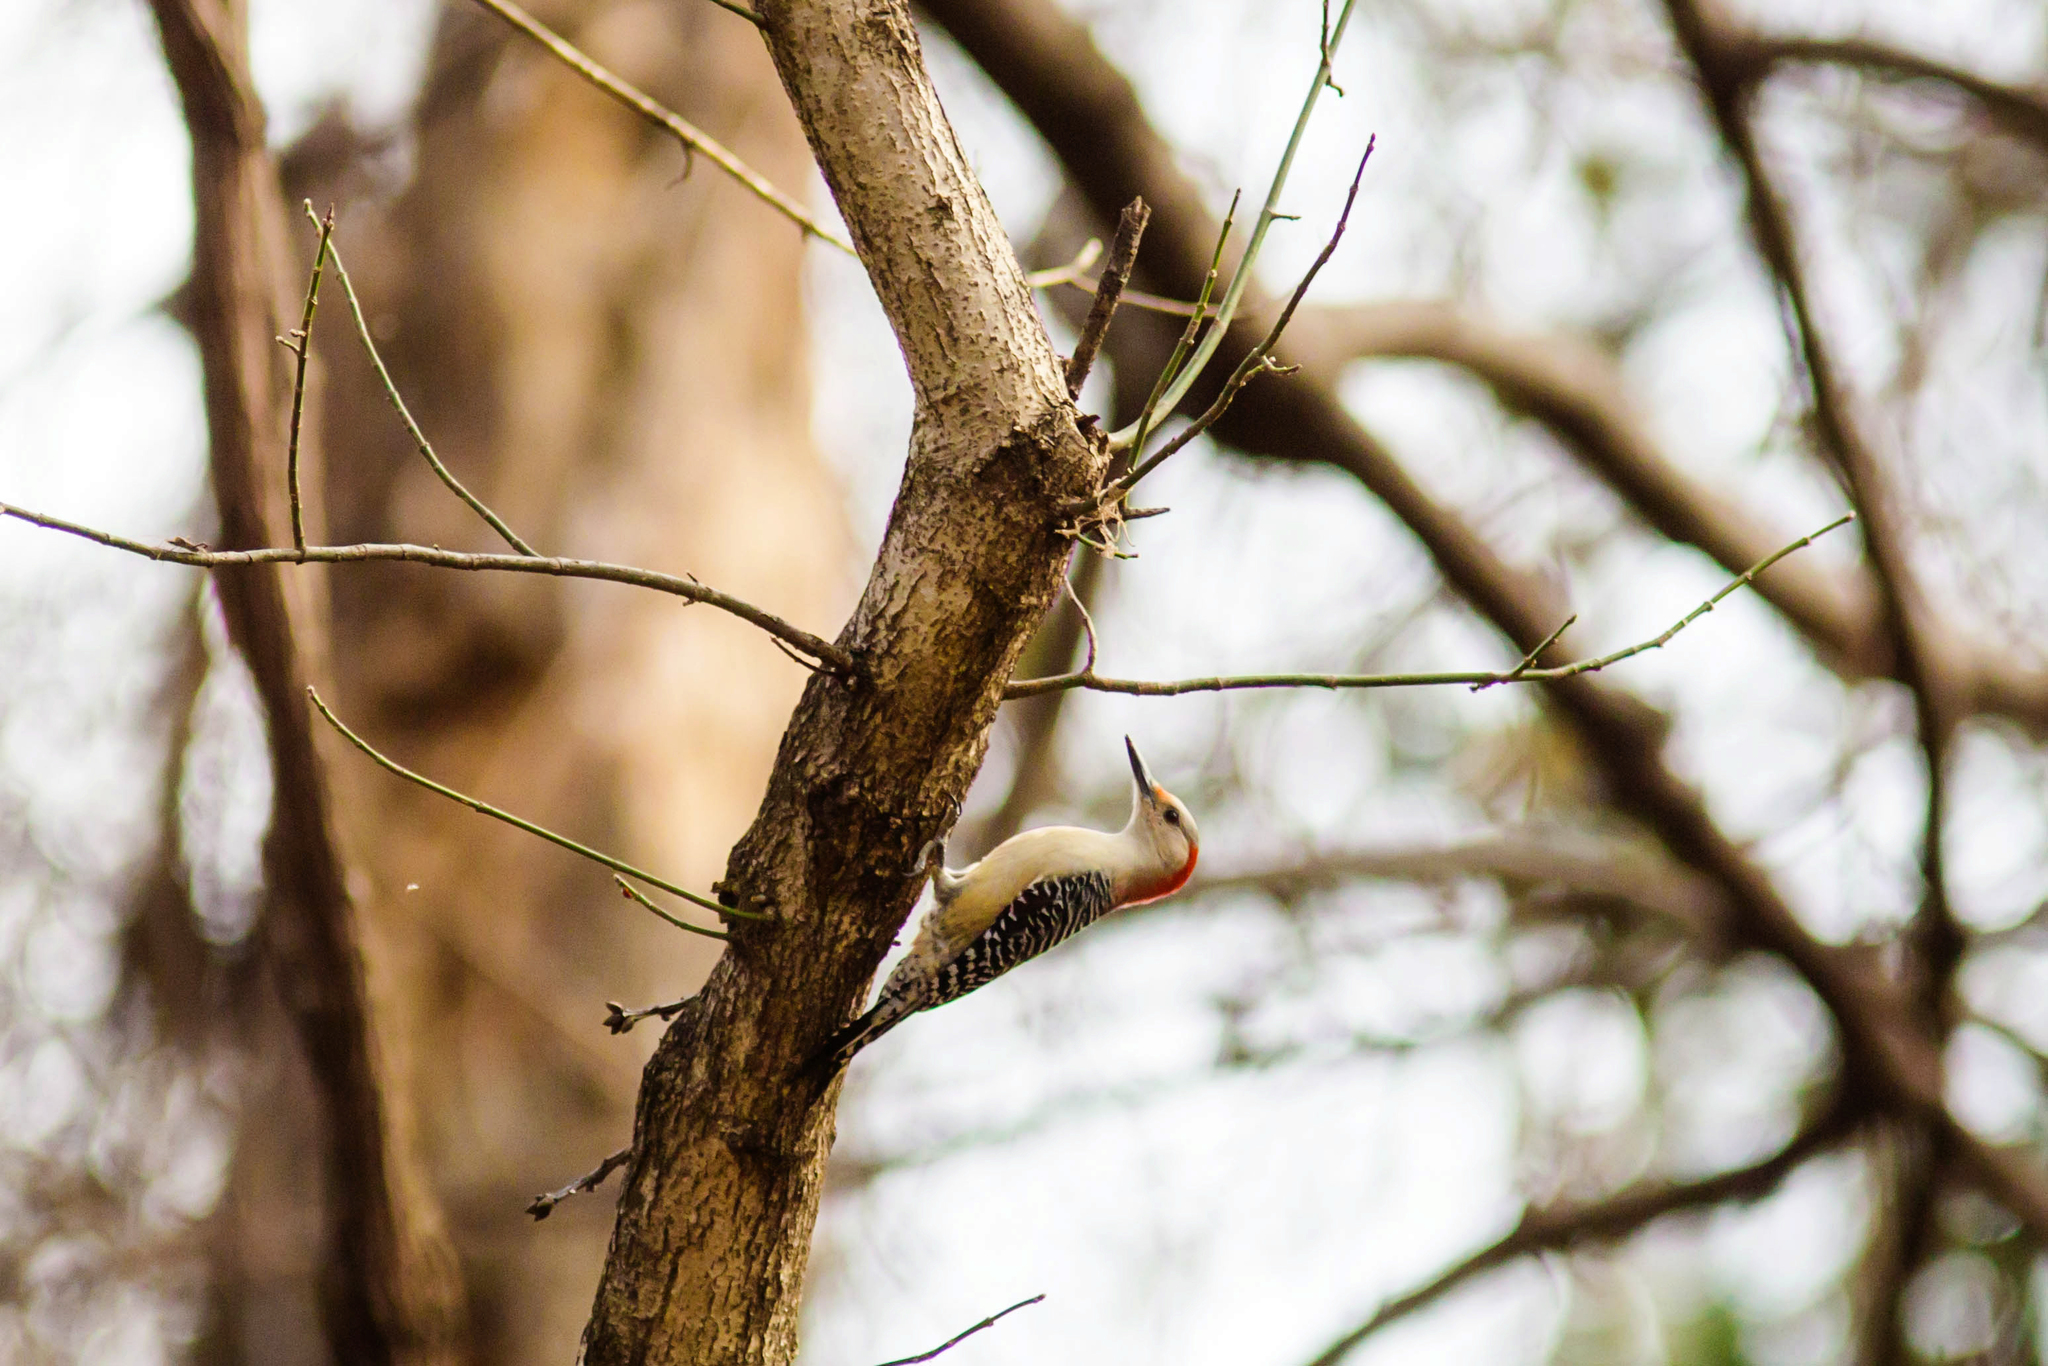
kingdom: Animalia
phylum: Chordata
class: Aves
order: Piciformes
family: Picidae
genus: Melanerpes
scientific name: Melanerpes carolinus
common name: Red-bellied woodpecker
